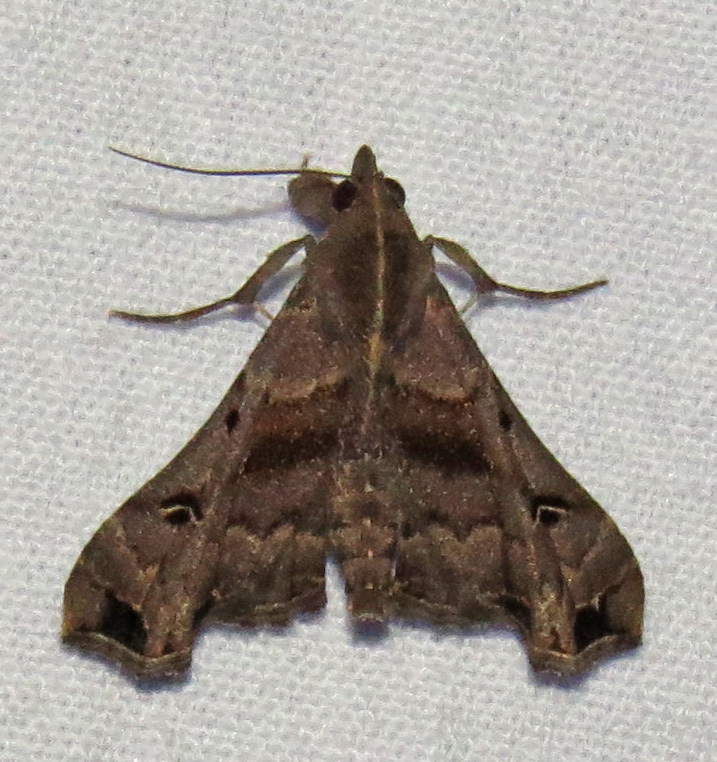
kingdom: Animalia
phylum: Arthropoda
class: Insecta
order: Lepidoptera
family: Erebidae
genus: Palthis
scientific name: Palthis asopialis
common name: Faint-spotted palthis moth
